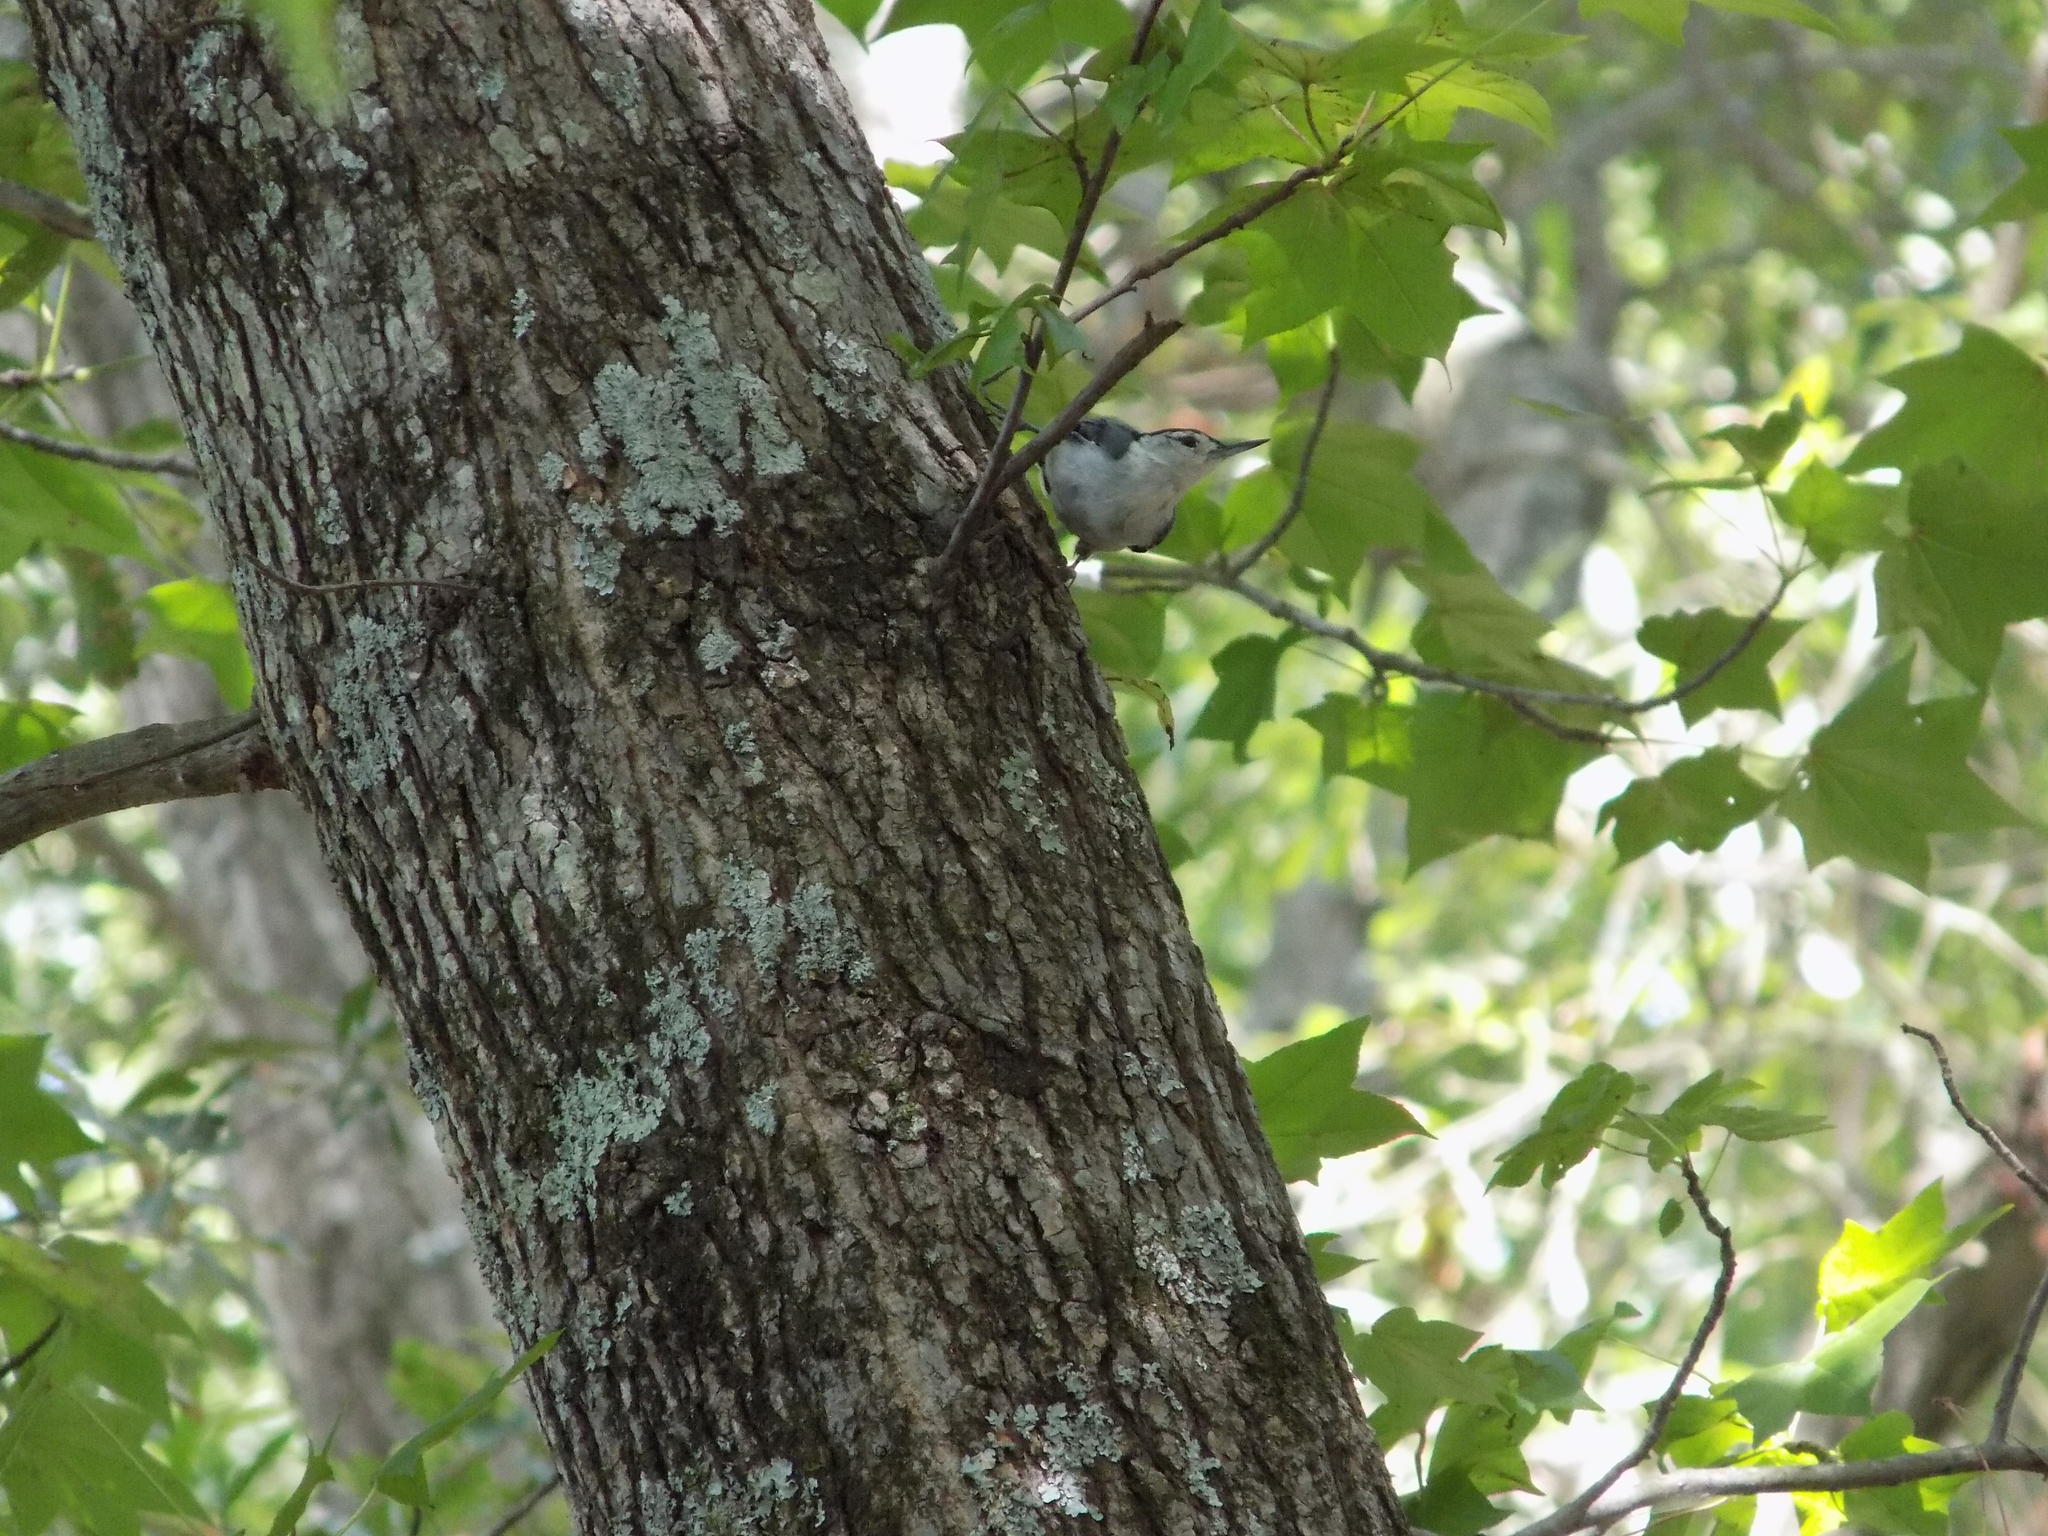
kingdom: Animalia
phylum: Chordata
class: Aves
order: Passeriformes
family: Sittidae
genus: Sitta
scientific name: Sitta carolinensis
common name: White-breasted nuthatch
